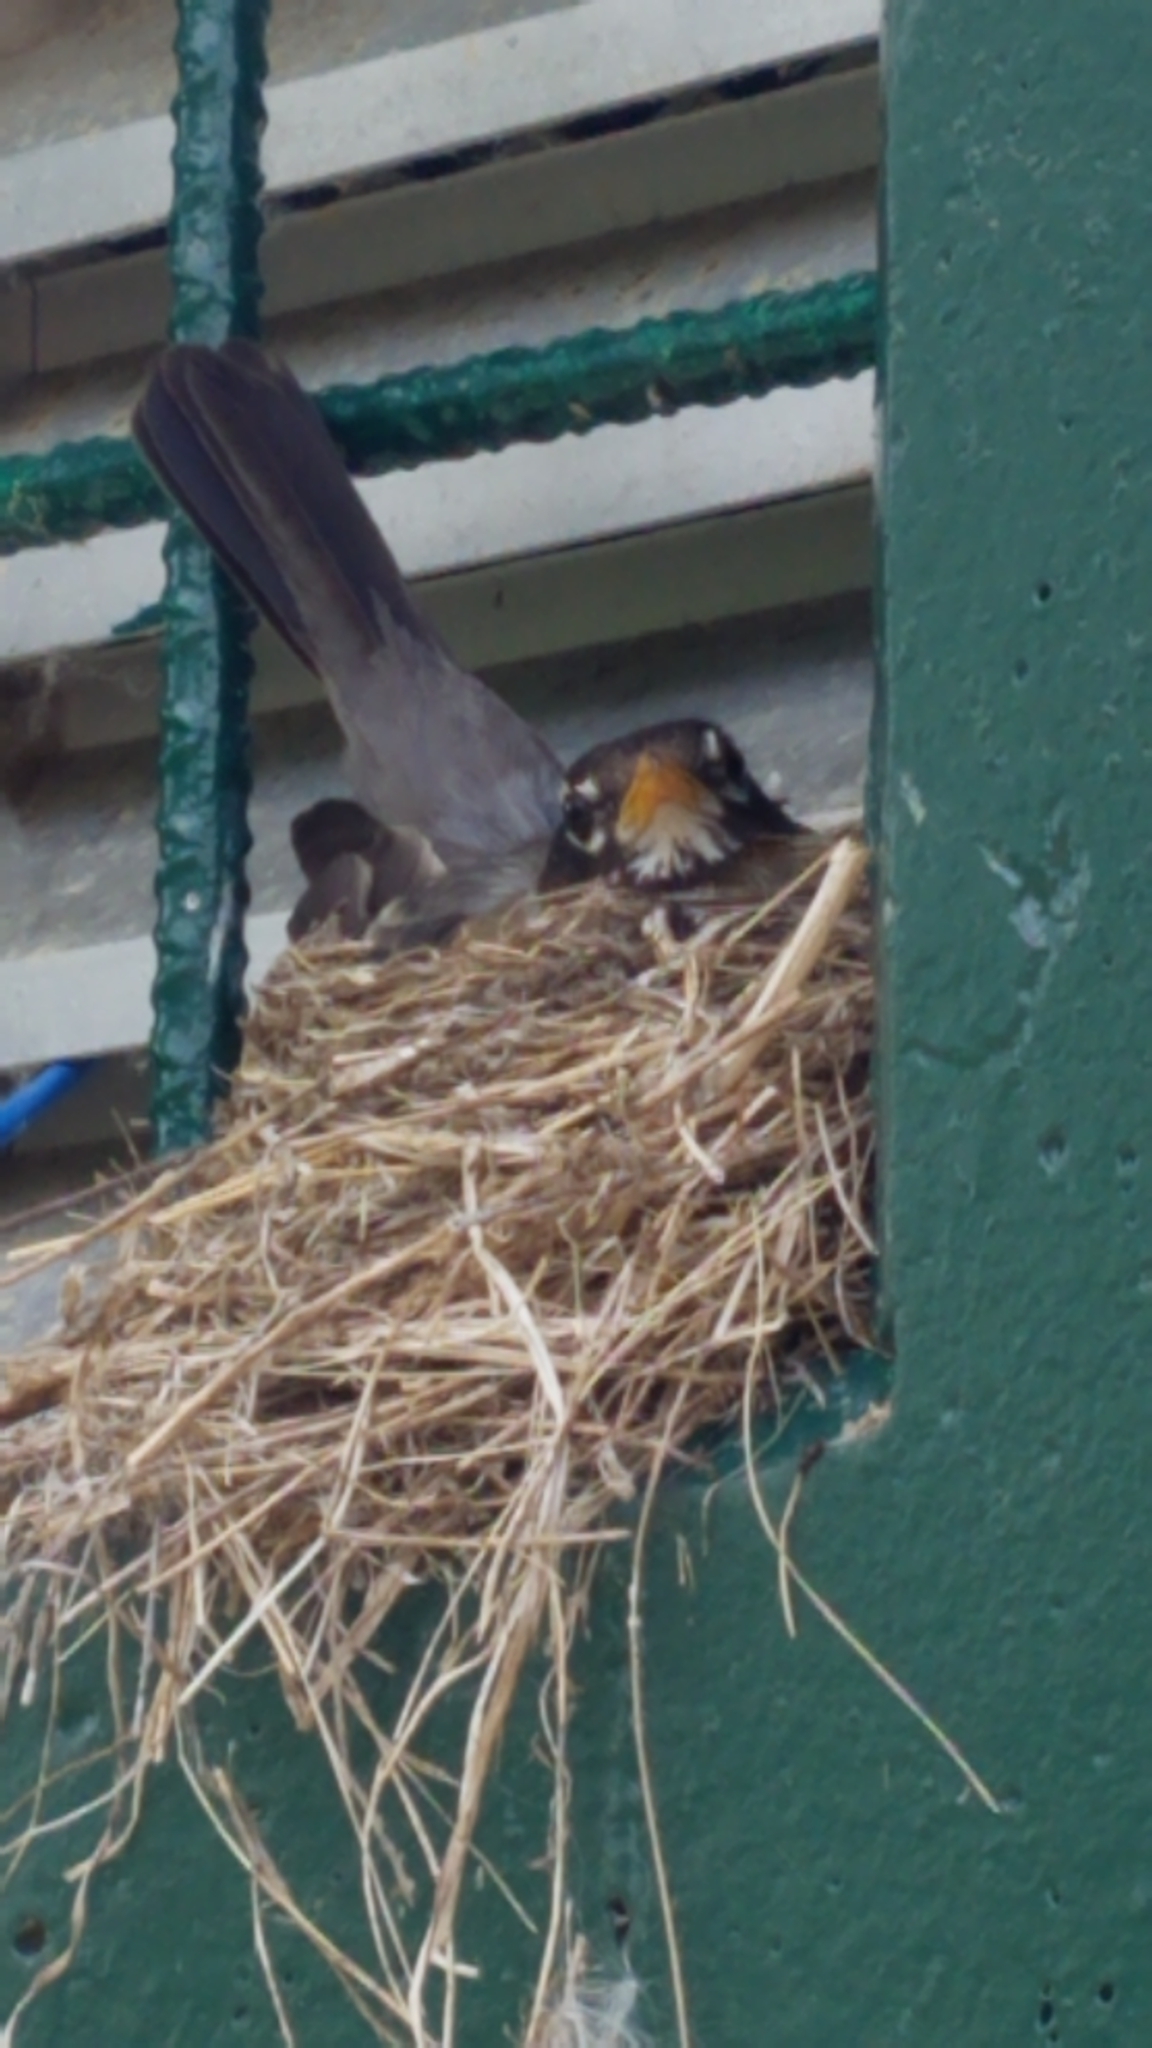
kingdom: Animalia
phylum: Chordata
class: Aves
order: Passeriformes
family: Turdidae
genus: Turdus
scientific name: Turdus migratorius
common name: American robin
